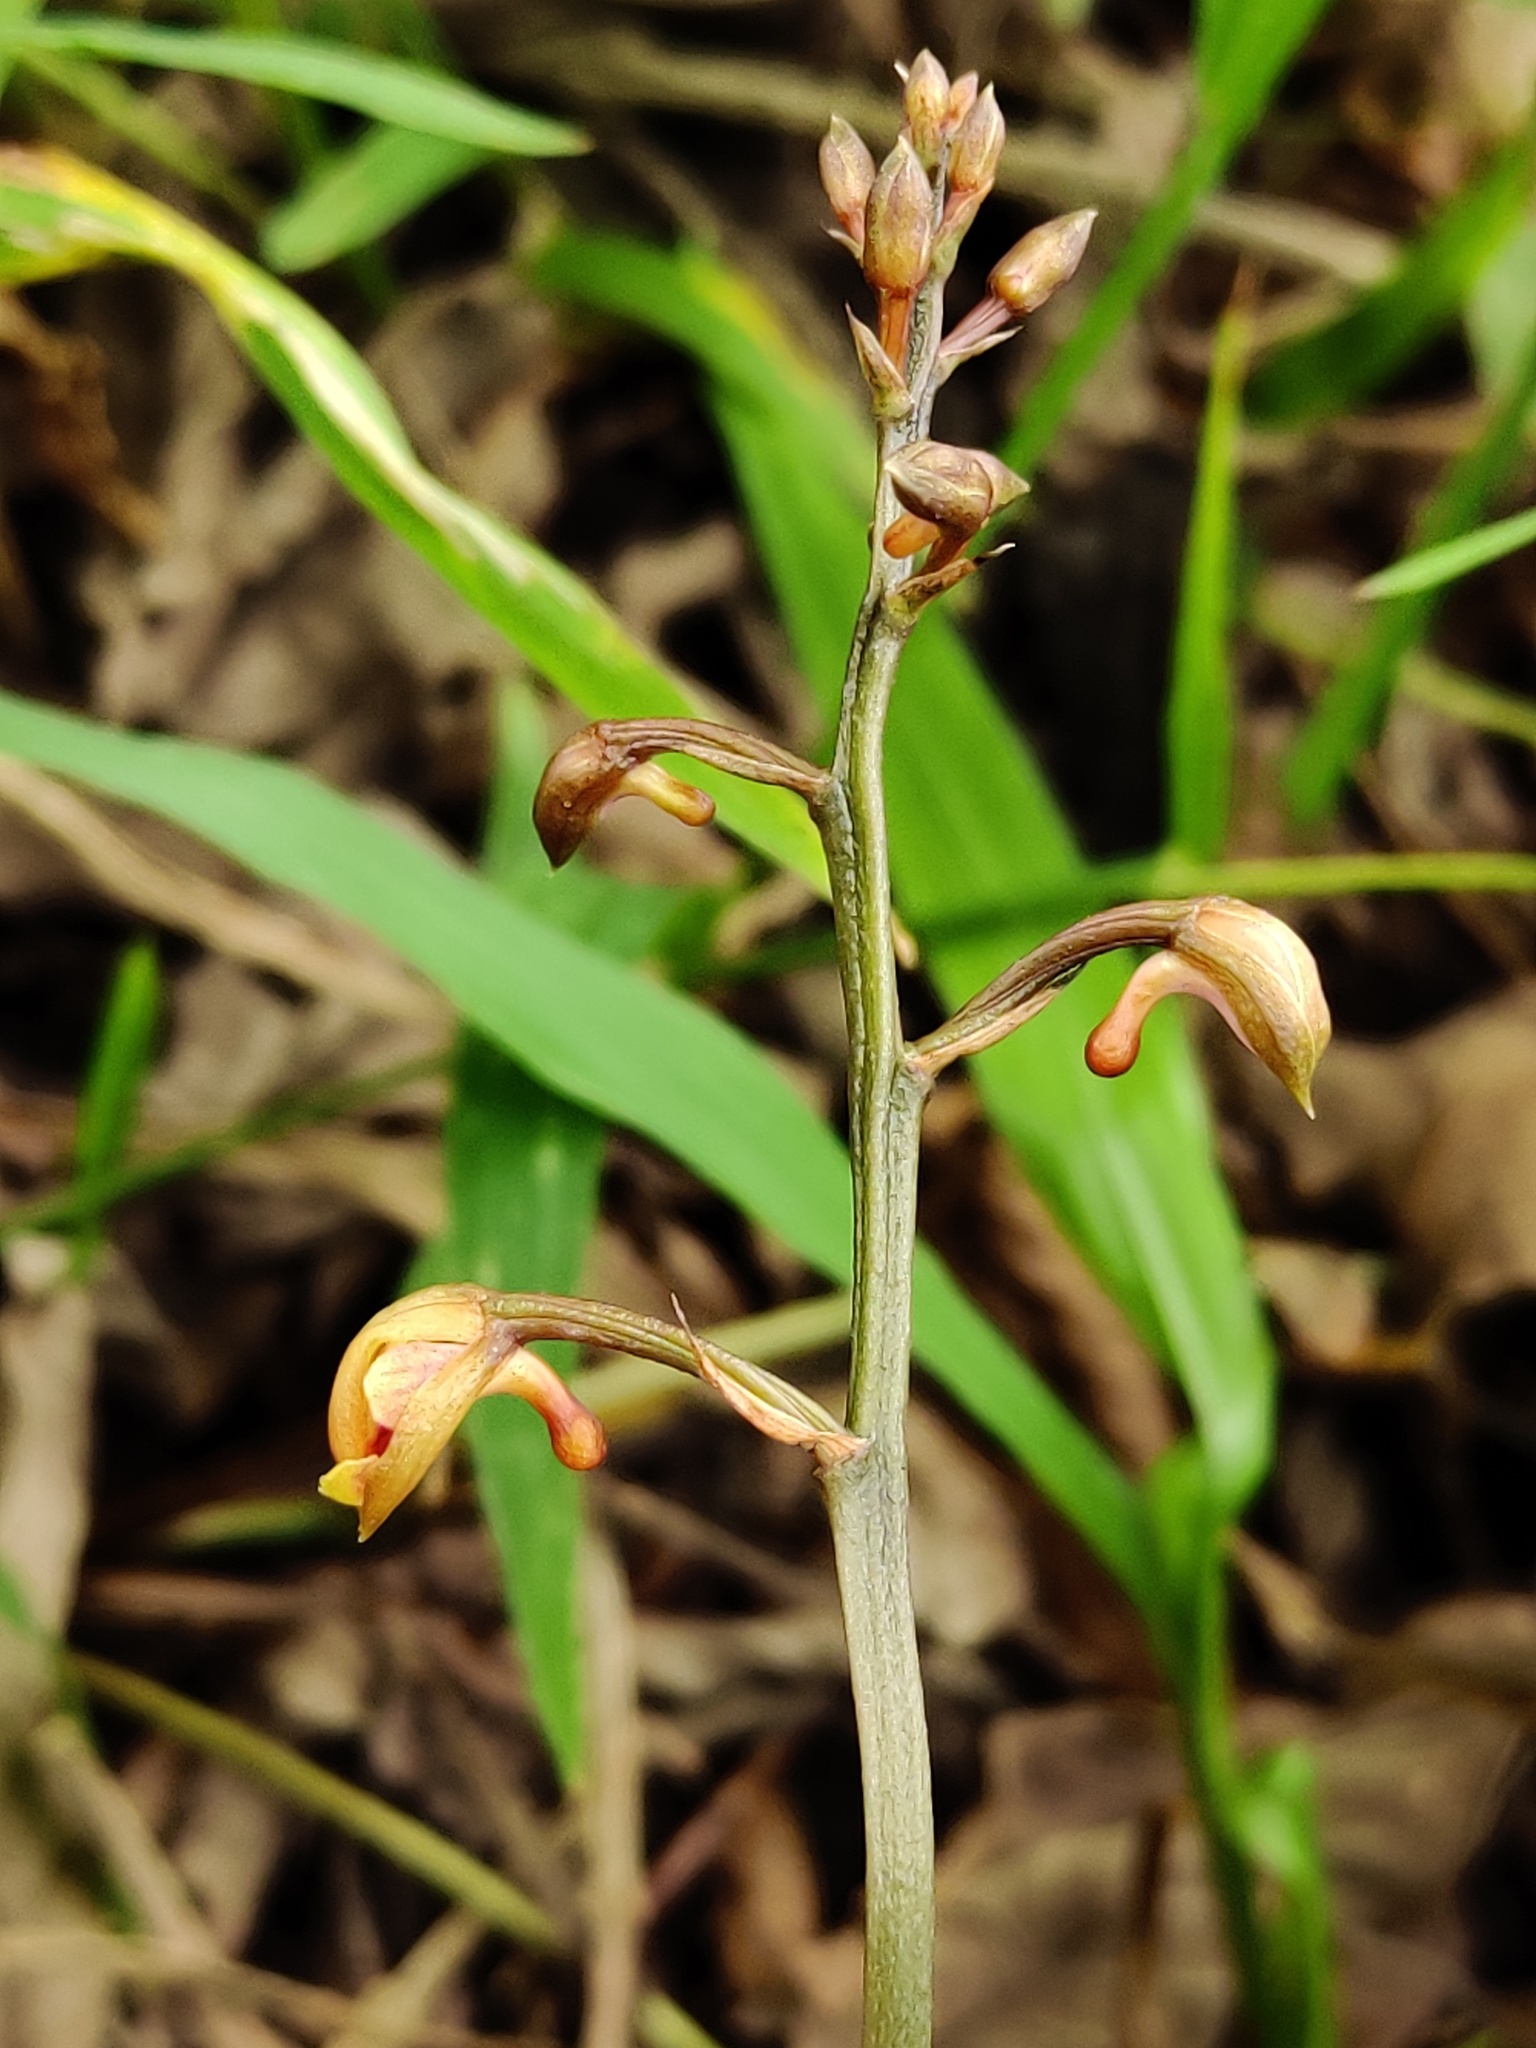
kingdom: Plantae
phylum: Tracheophyta
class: Liliopsida
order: Asparagales
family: Orchidaceae
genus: Eulophia
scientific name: Eulophia maculata
